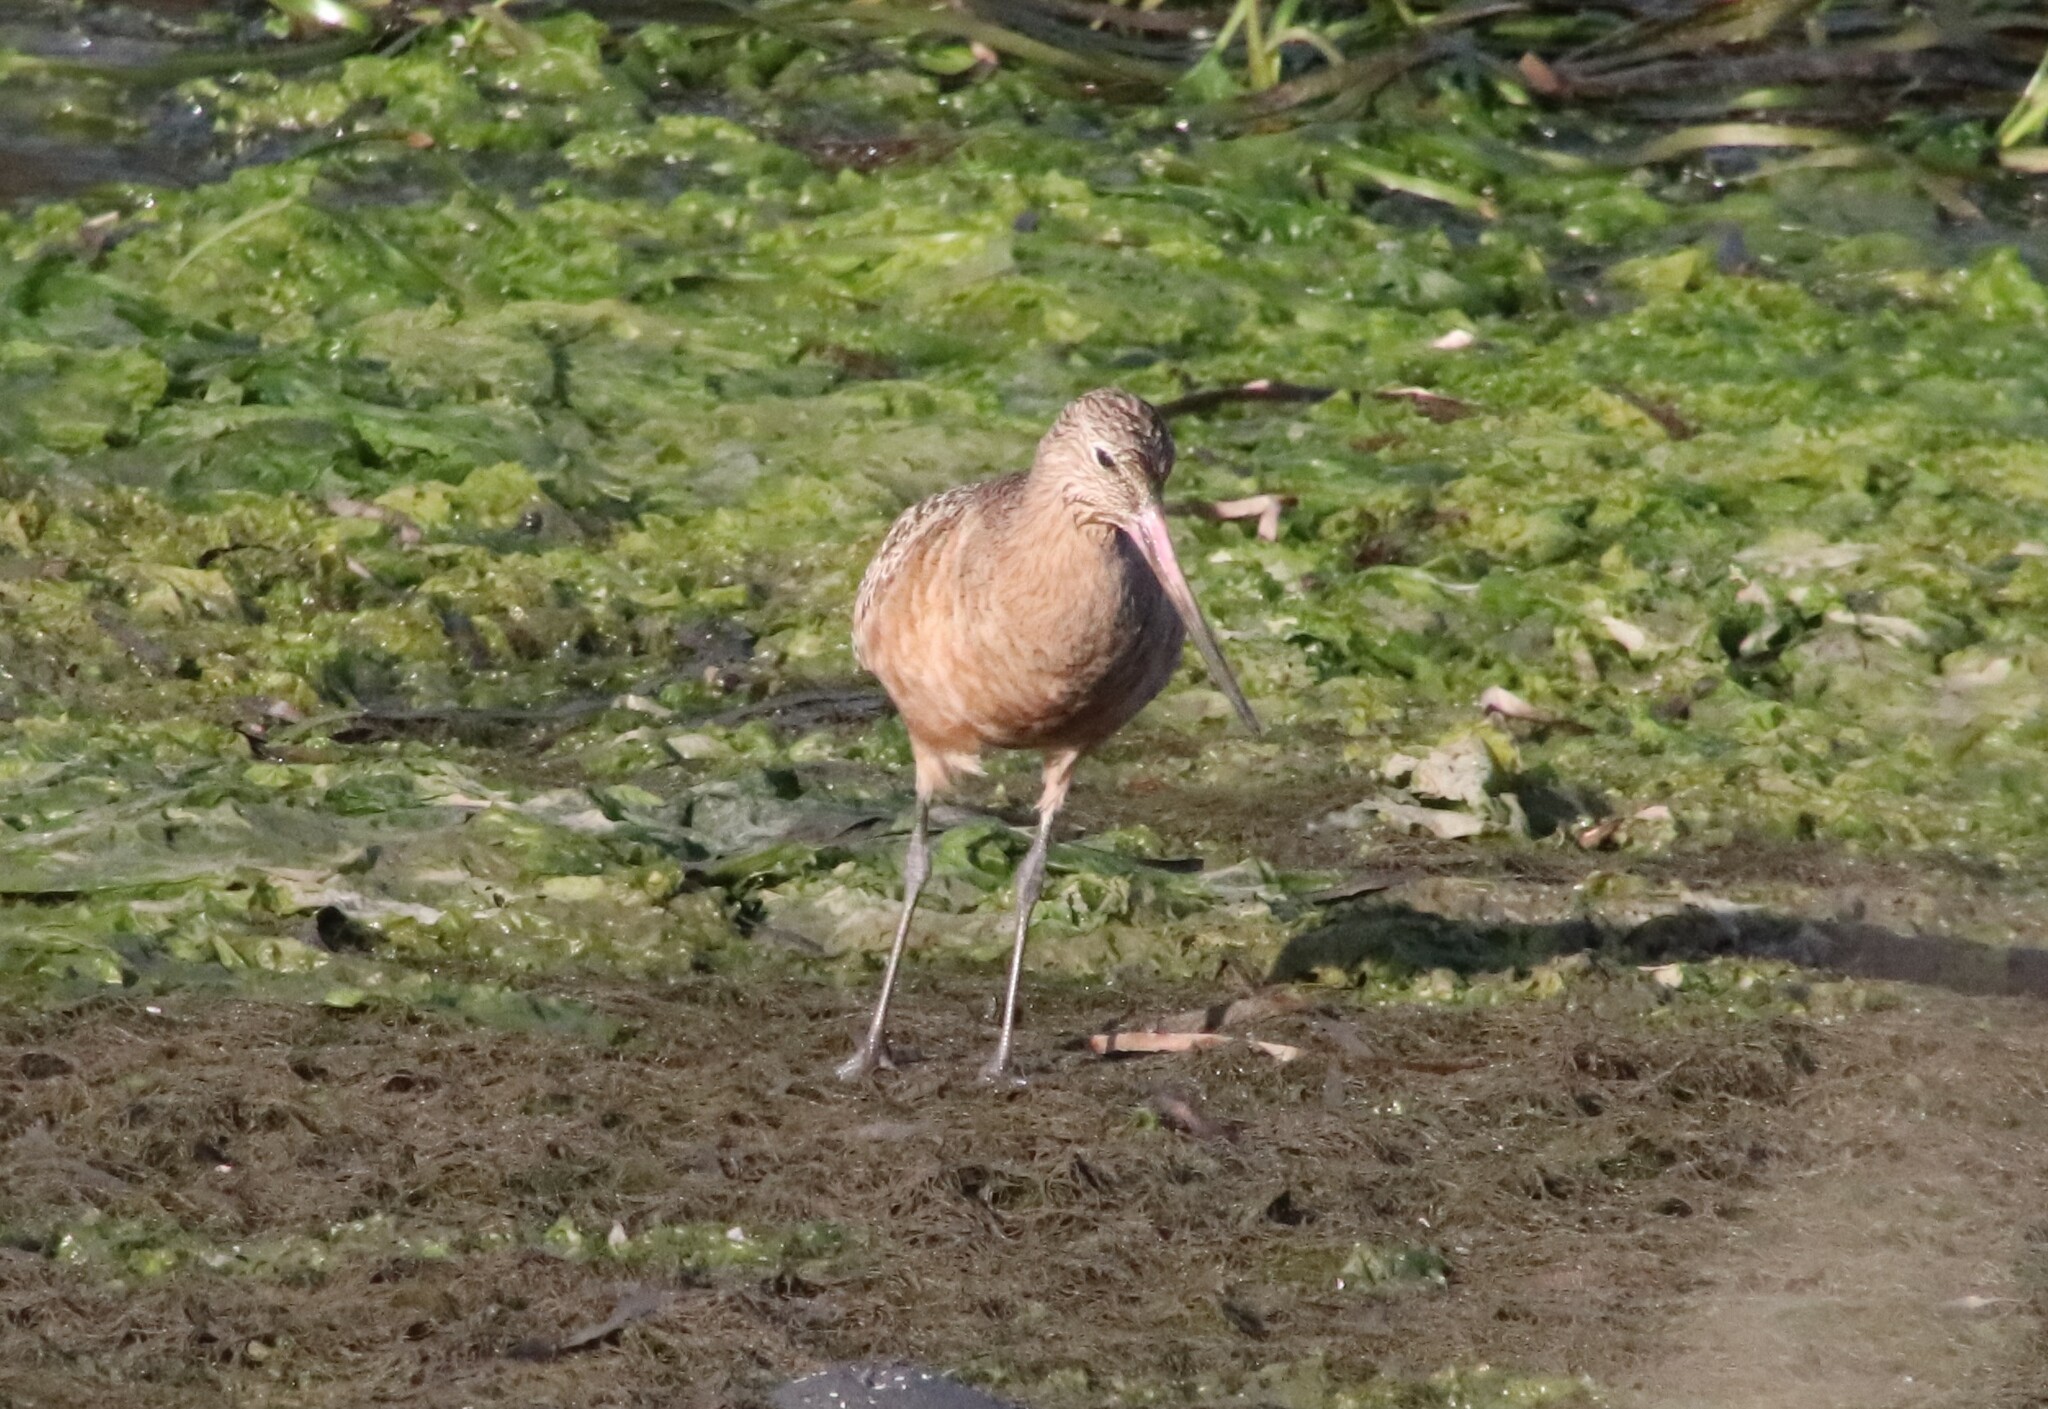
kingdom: Animalia
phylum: Chordata
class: Aves
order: Charadriiformes
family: Scolopacidae
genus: Limosa
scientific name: Limosa fedoa
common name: Marbled godwit
